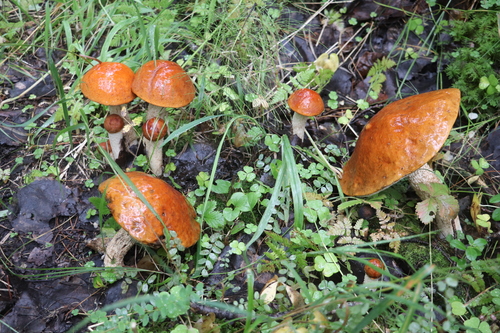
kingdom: Fungi
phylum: Basidiomycota
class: Agaricomycetes
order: Boletales
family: Boletaceae
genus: Leccinum
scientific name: Leccinum albostipitatum
